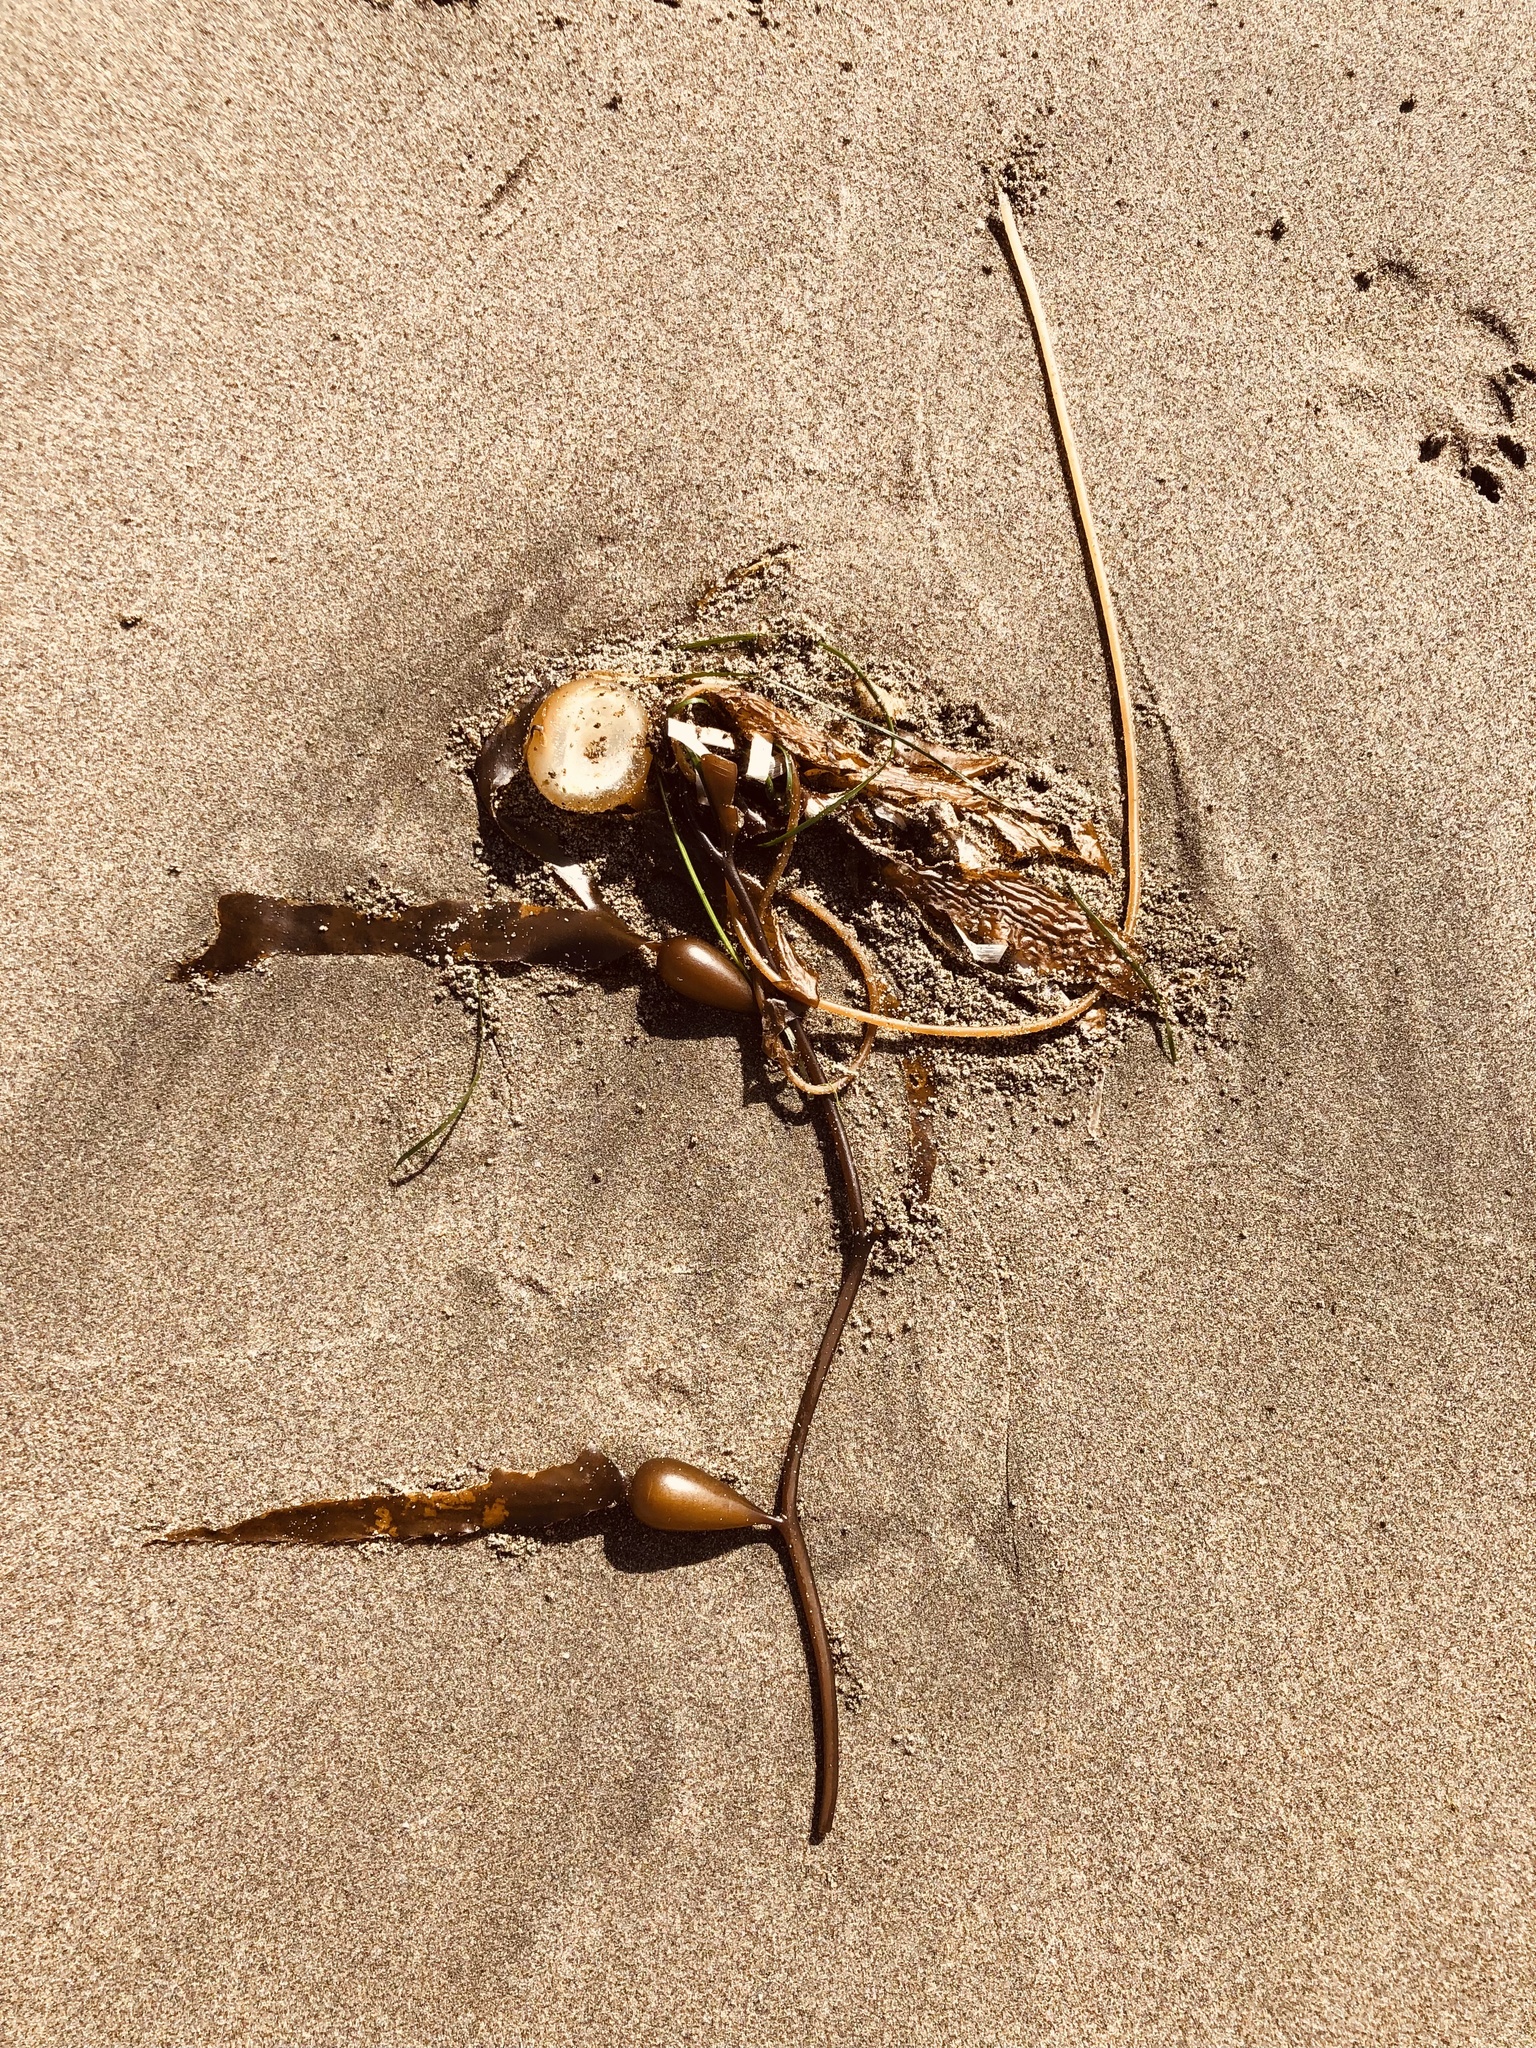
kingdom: Chromista
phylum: Ochrophyta
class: Phaeophyceae
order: Laminariales
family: Laminariaceae
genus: Macrocystis
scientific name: Macrocystis pyrifera
